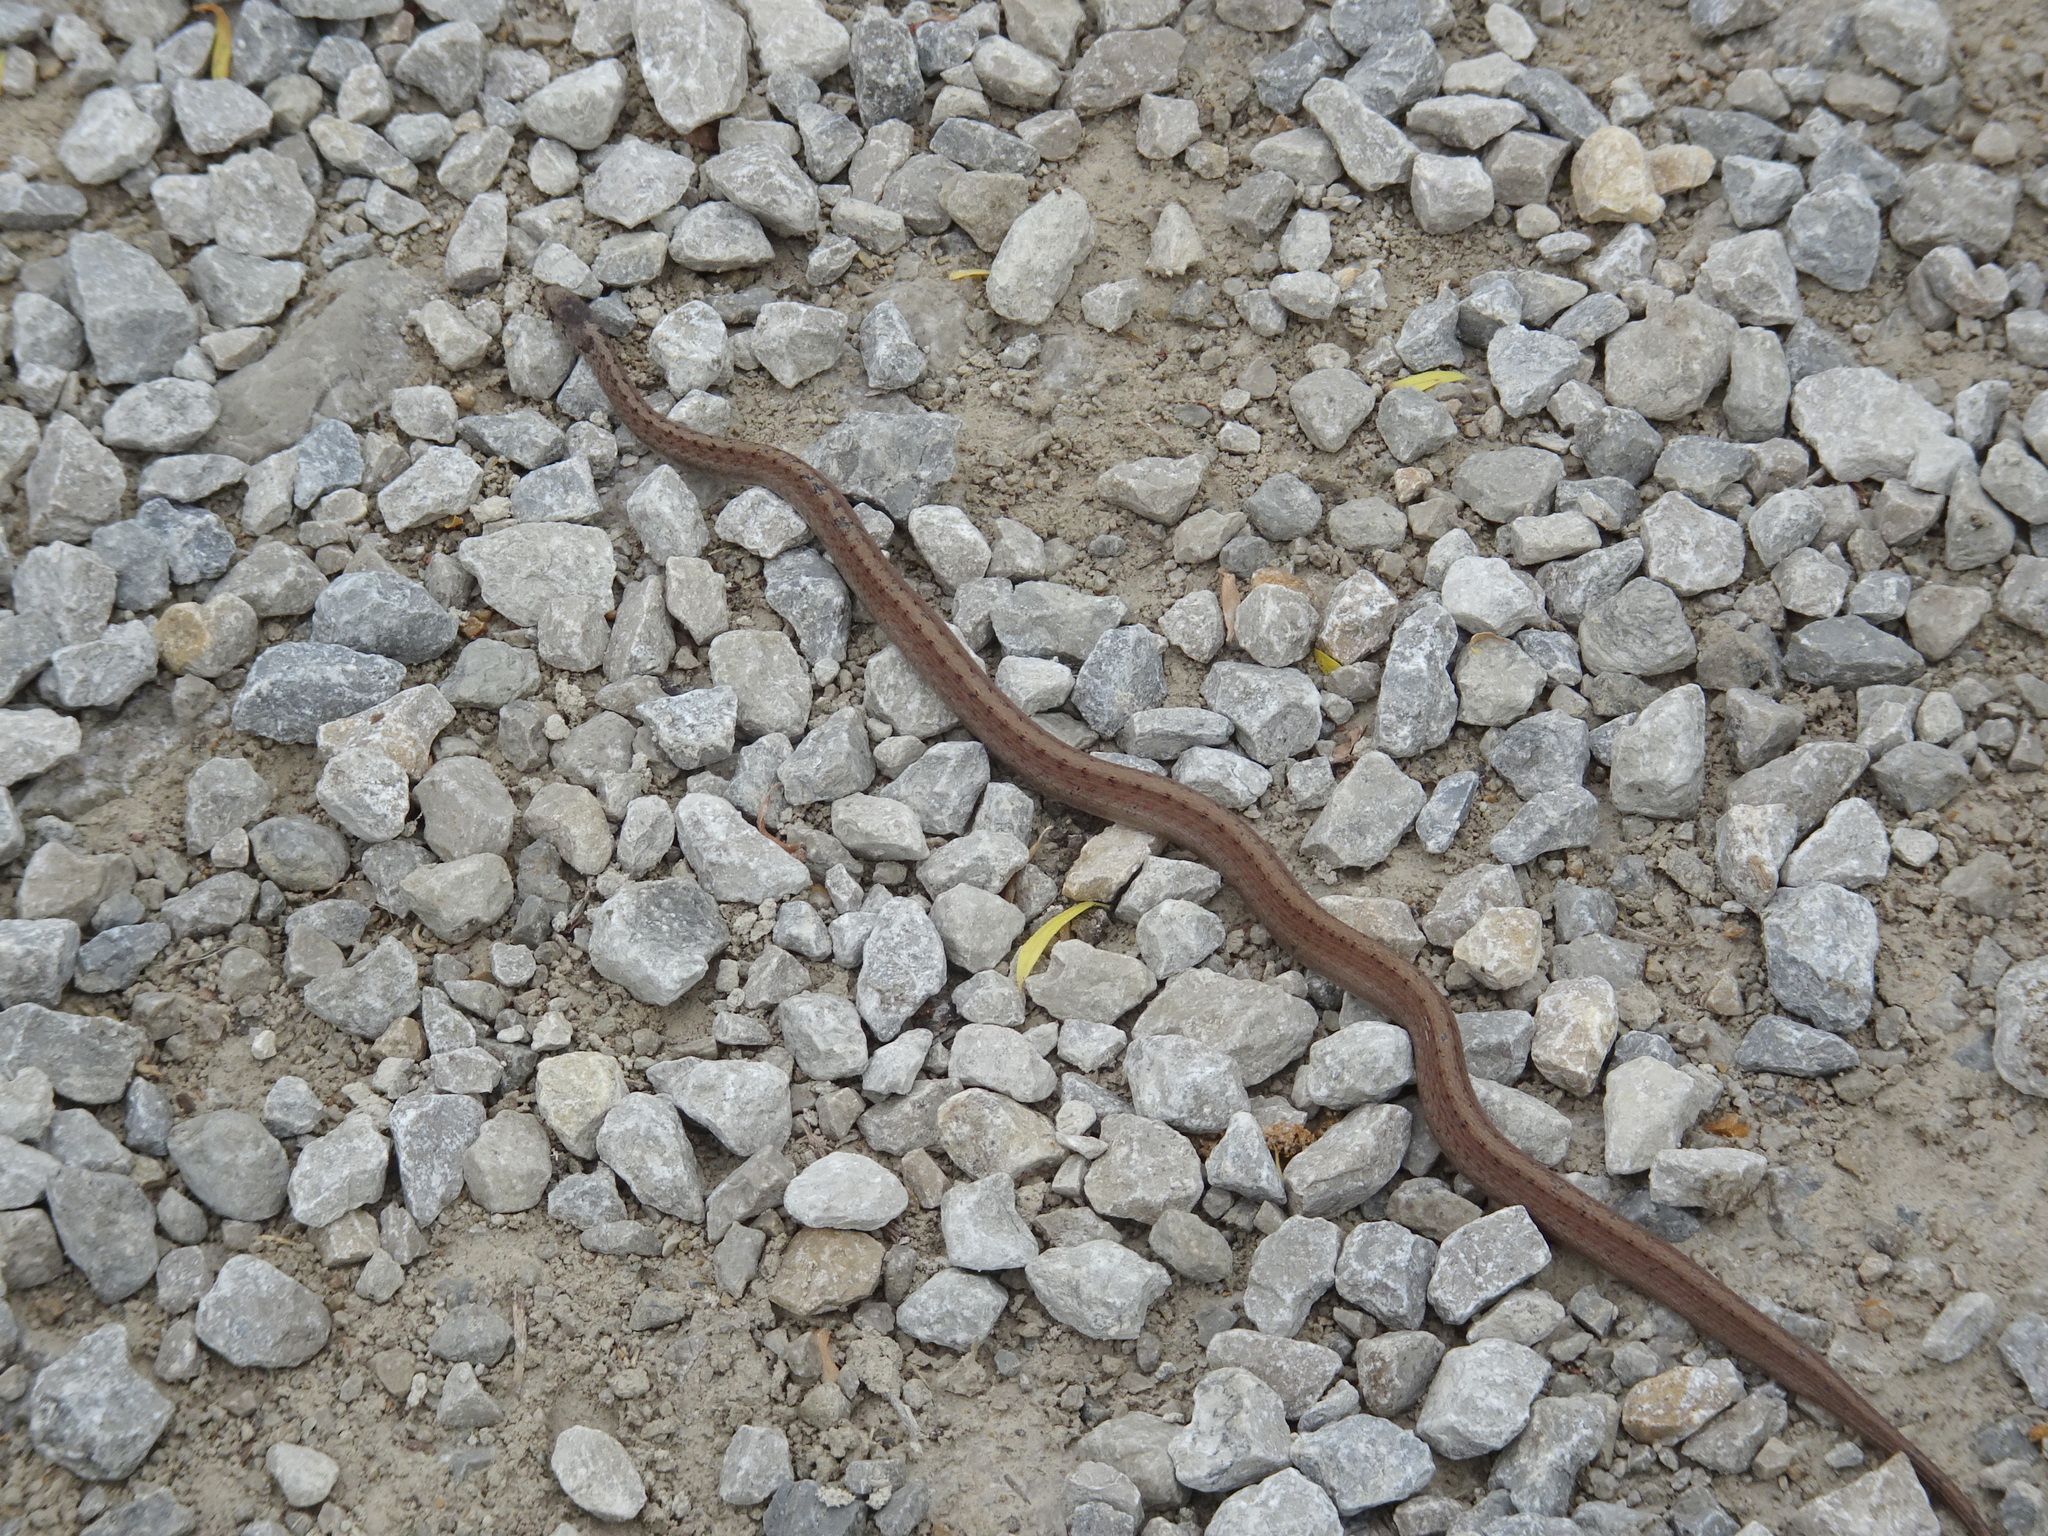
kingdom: Animalia
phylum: Chordata
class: Squamata
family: Colubridae
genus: Storeria
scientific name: Storeria dekayi
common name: (dekay’s) brown snake
